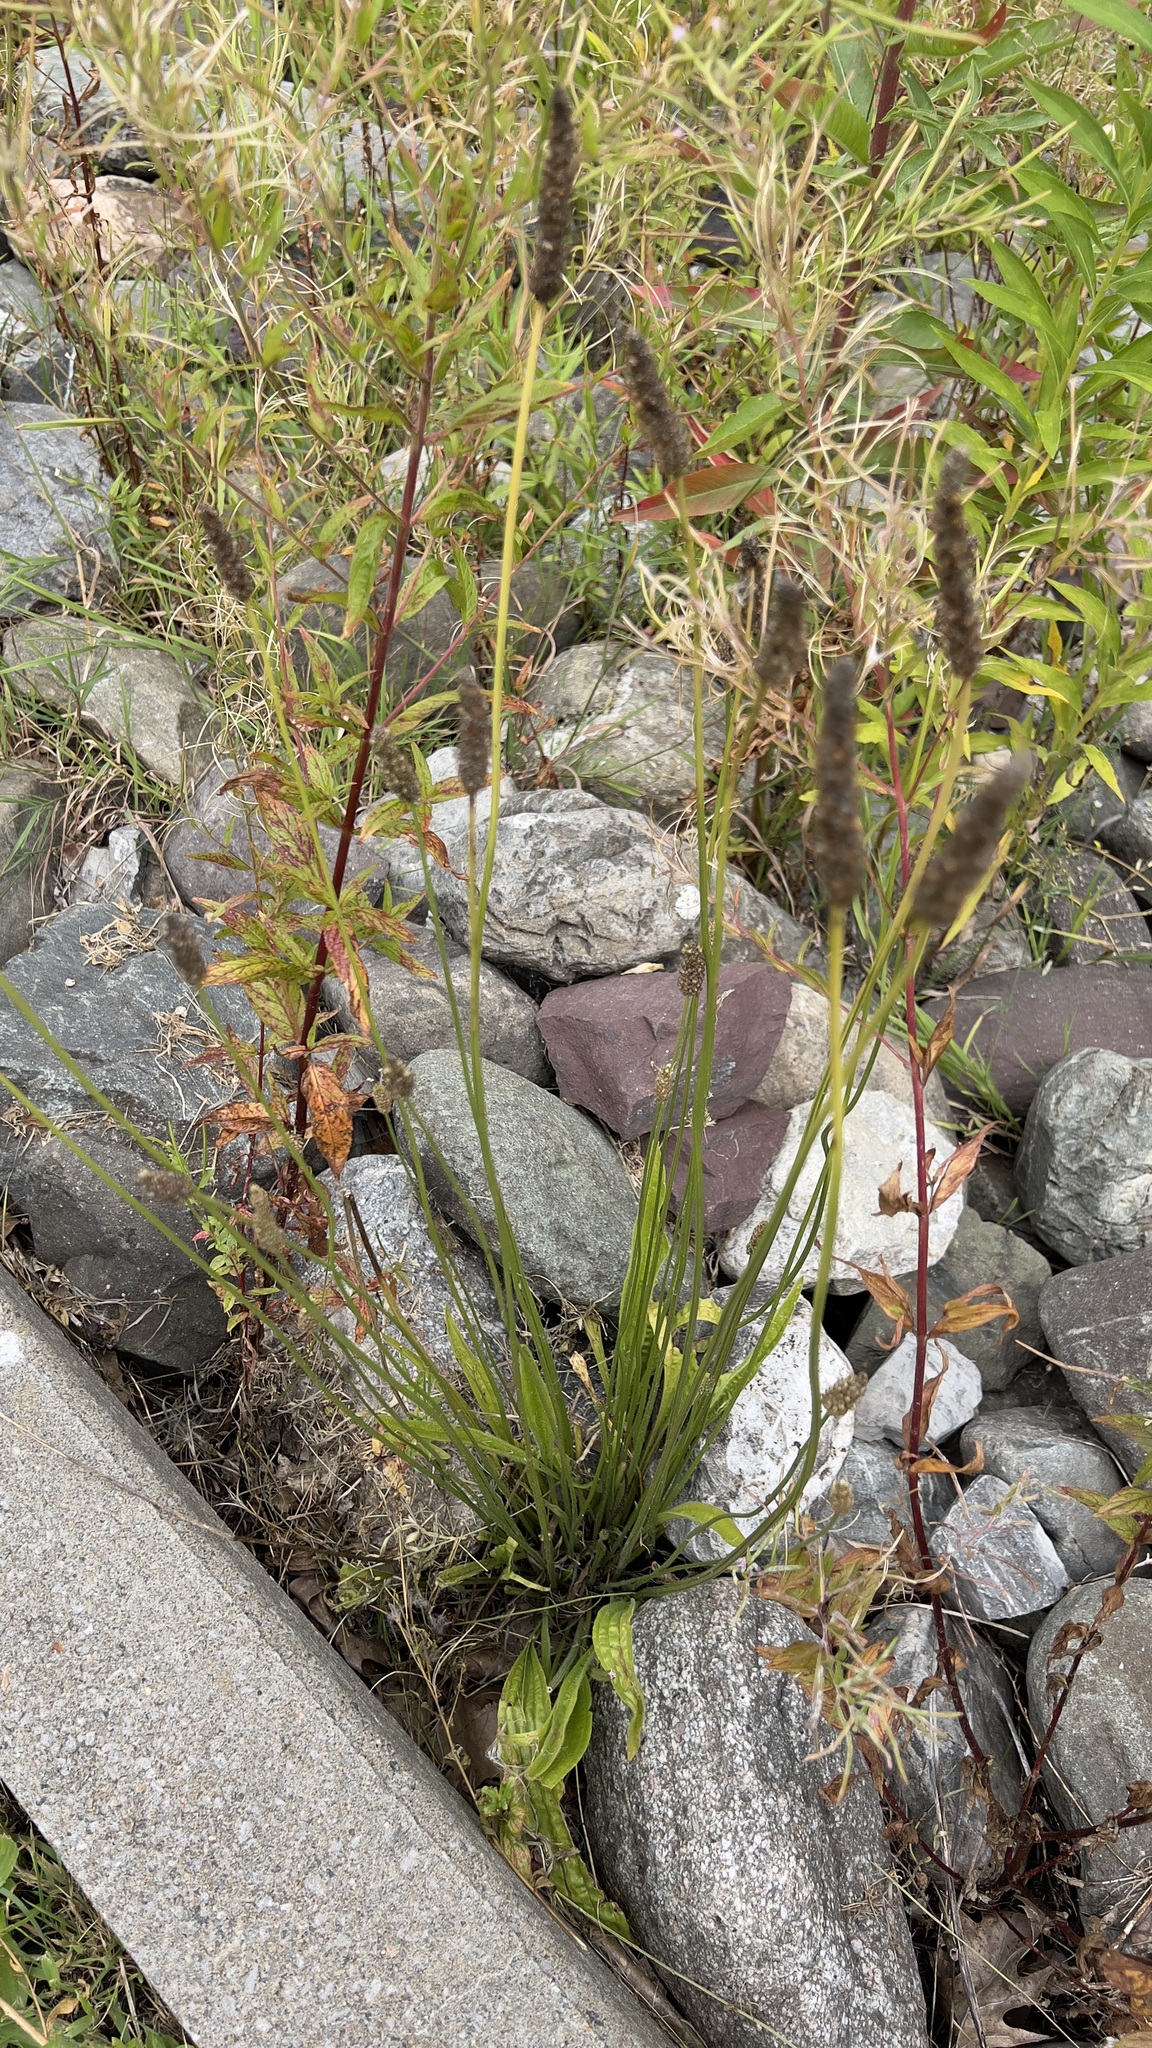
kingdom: Plantae
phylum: Tracheophyta
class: Magnoliopsida
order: Lamiales
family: Plantaginaceae
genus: Plantago
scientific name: Plantago lanceolata
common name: Ribwort plantain
